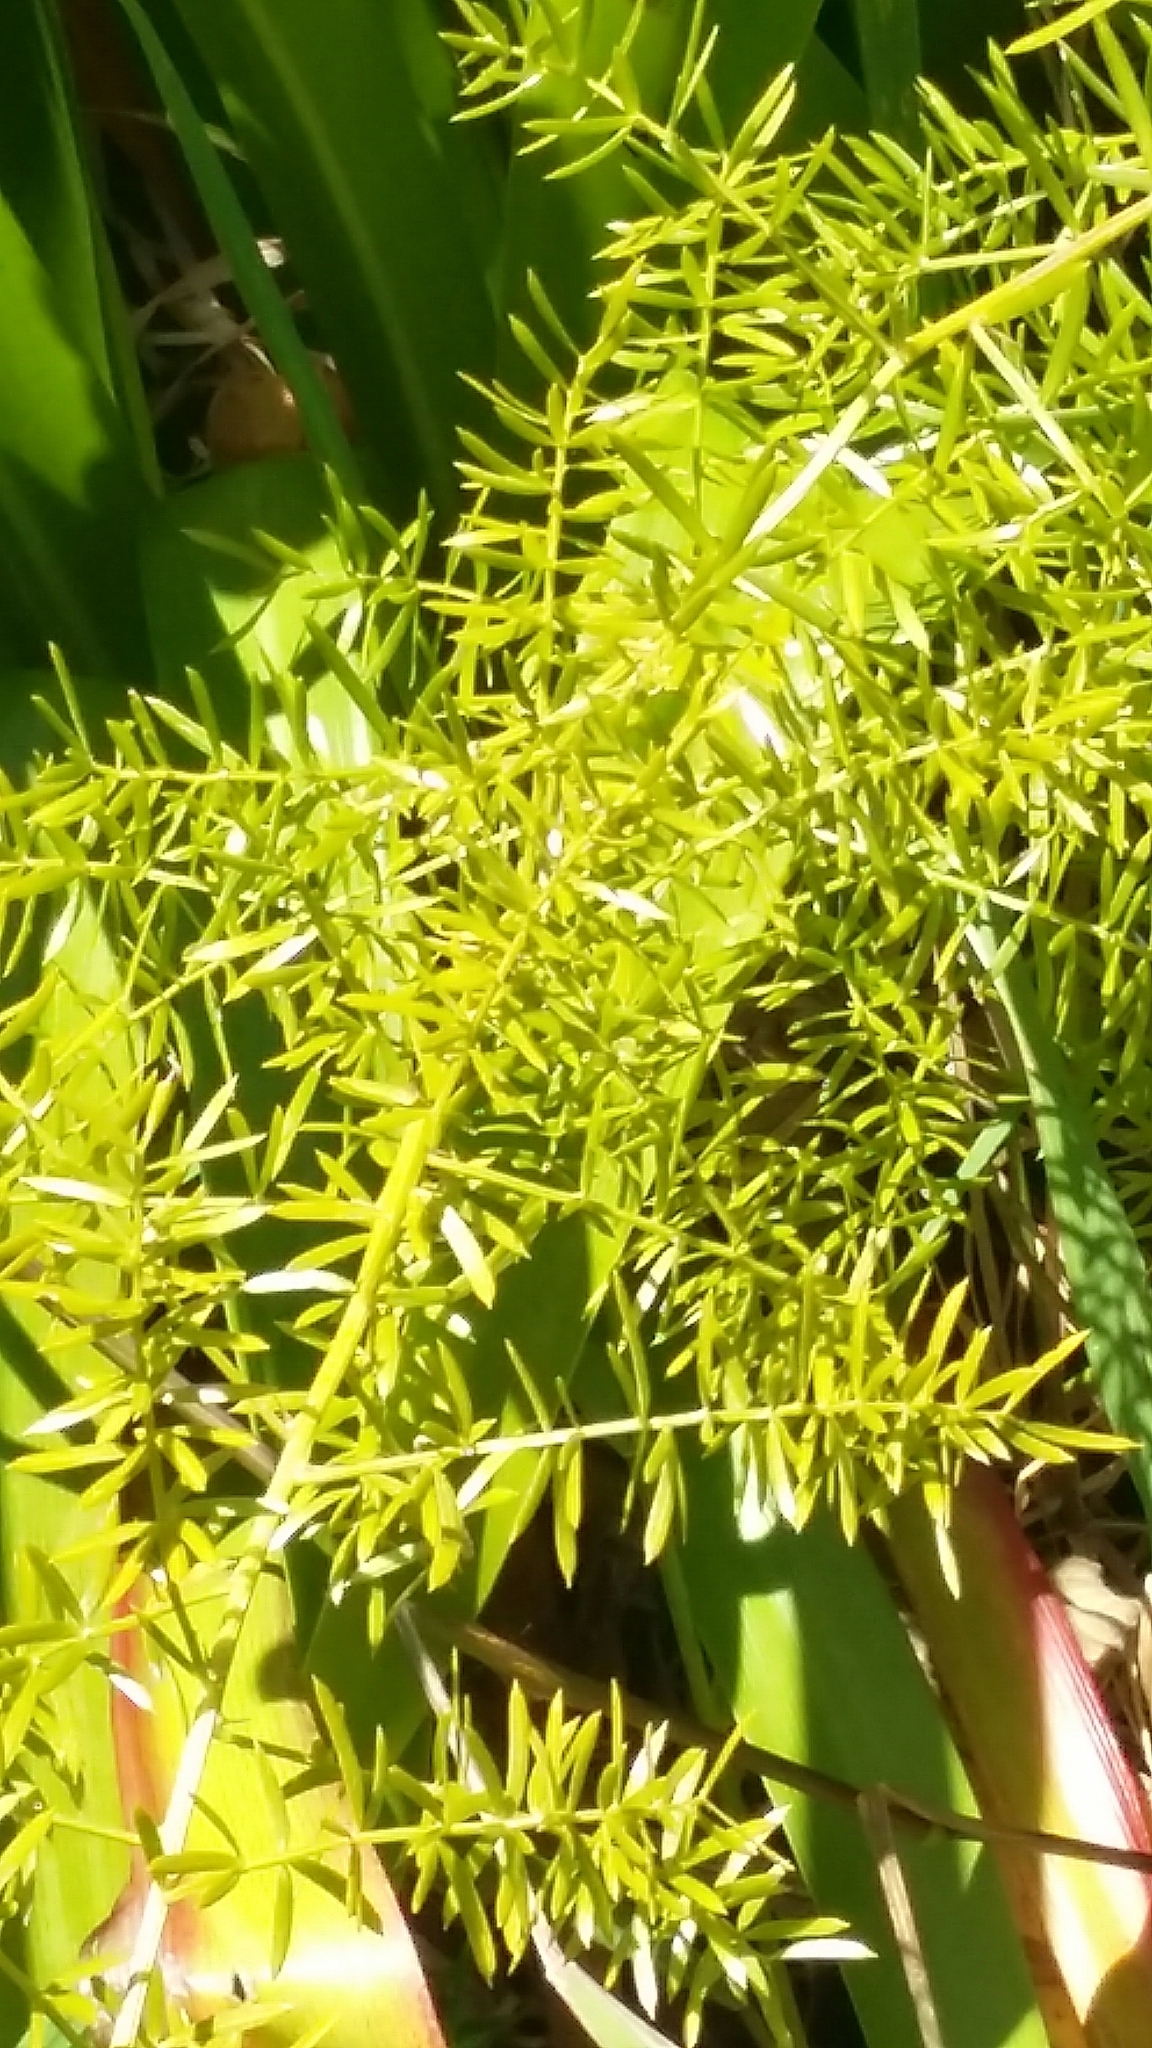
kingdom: Plantae
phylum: Tracheophyta
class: Liliopsida
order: Asparagales
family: Asparagaceae
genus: Asparagus
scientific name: Asparagus aethiopicus
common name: Sprenger's asparagus fern
